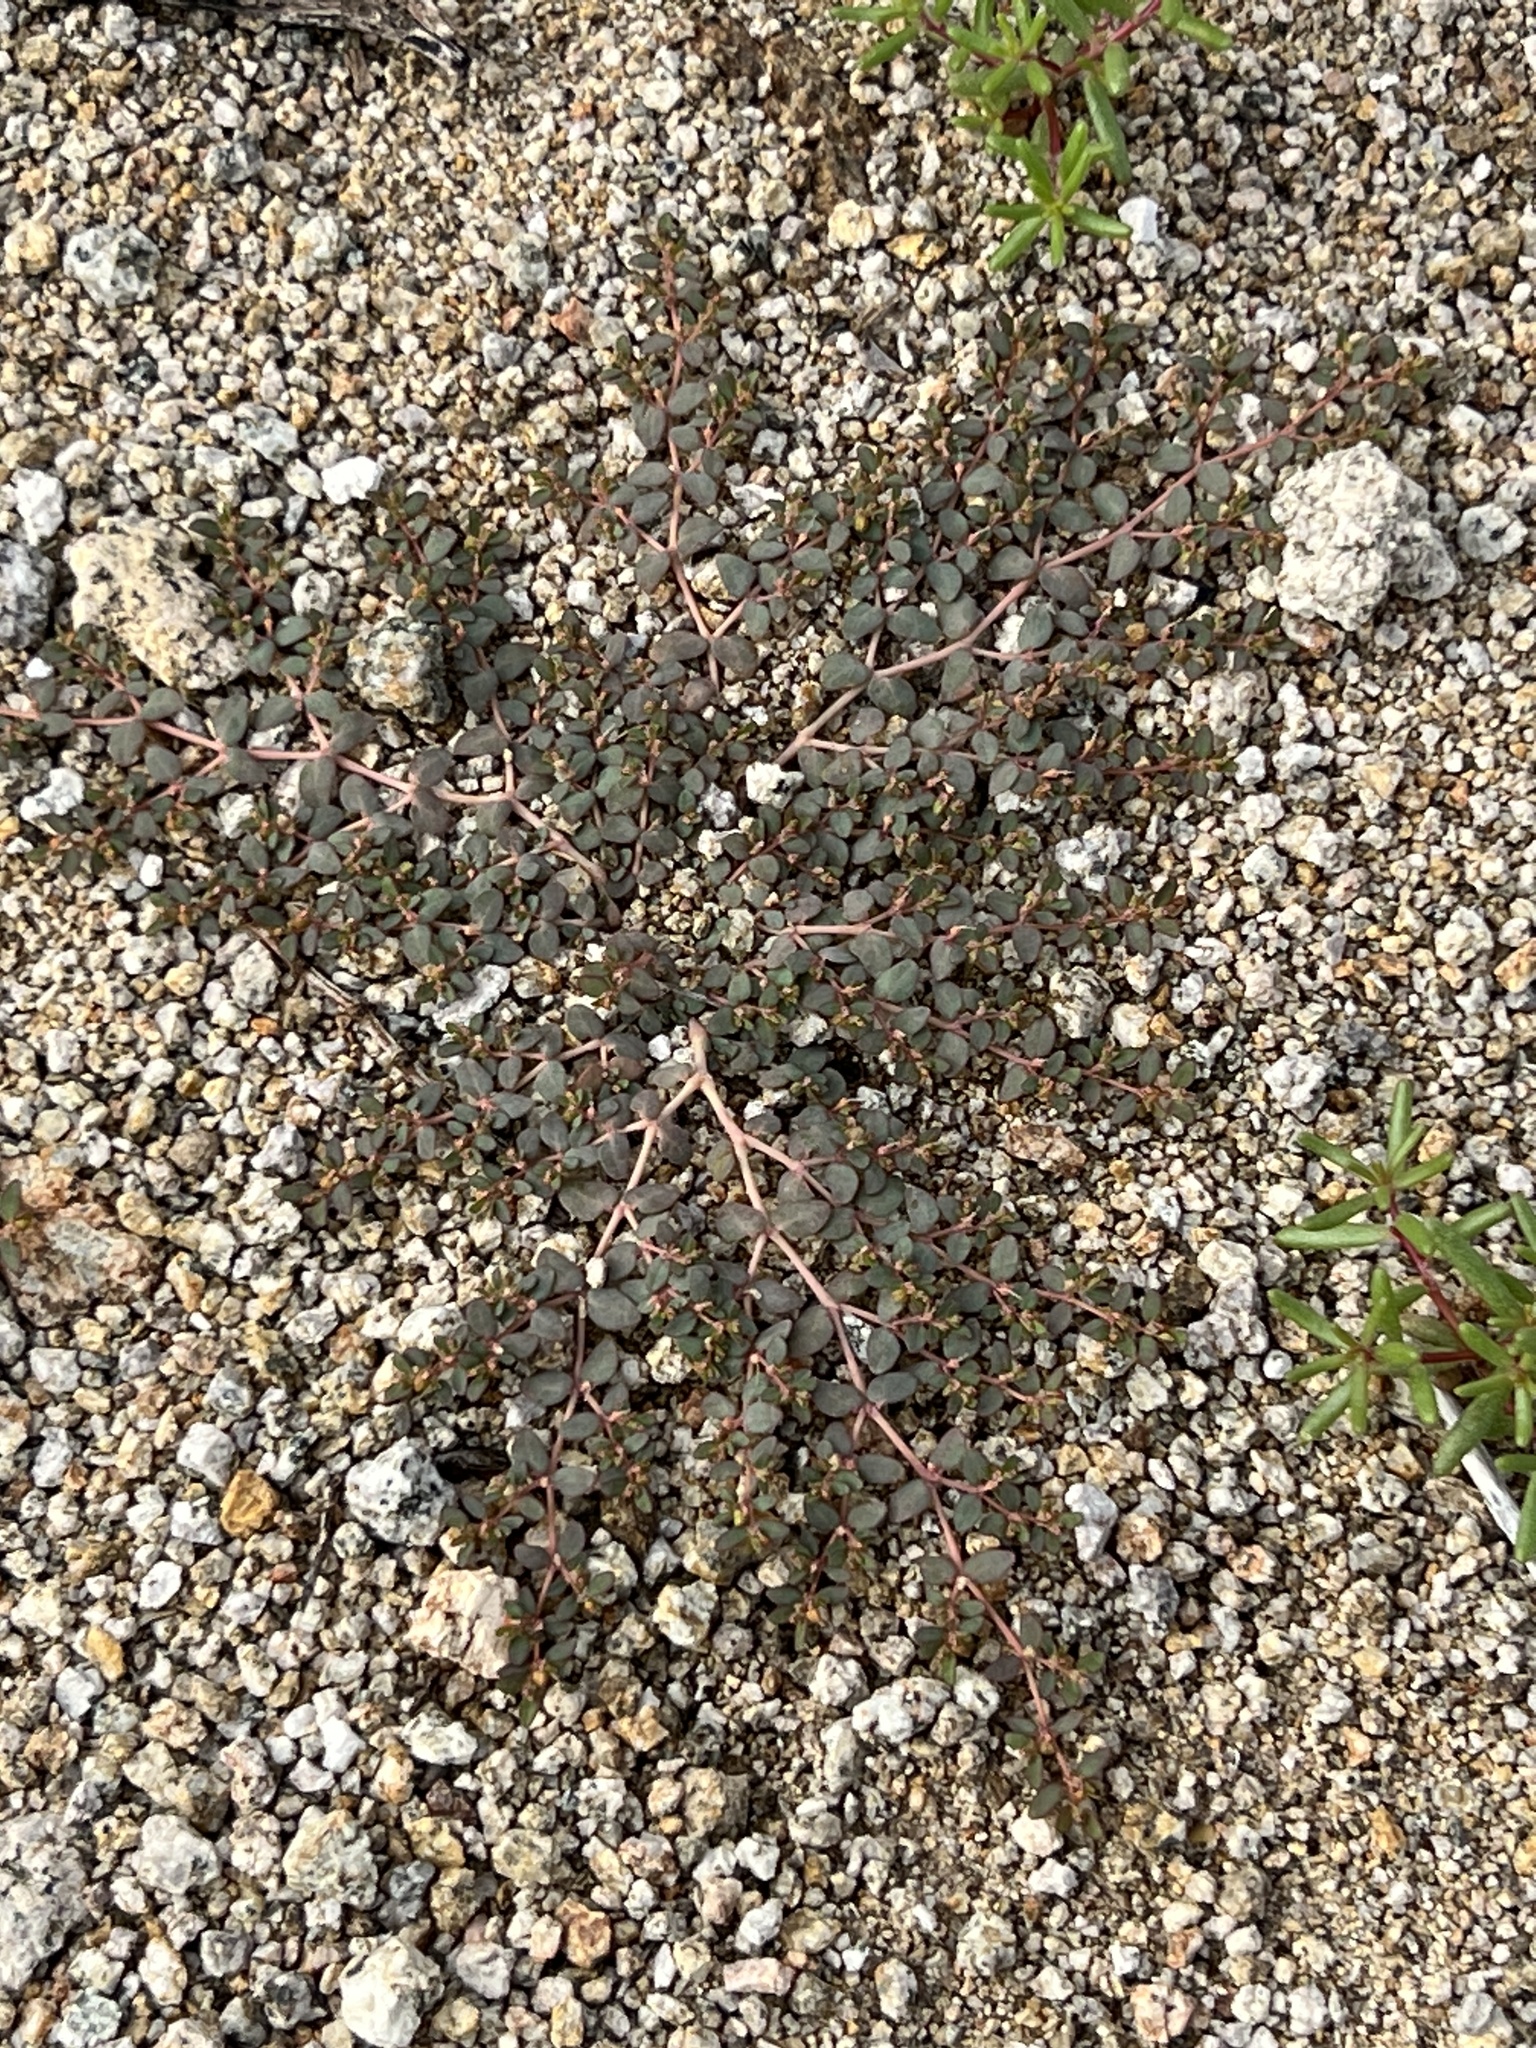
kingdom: Plantae
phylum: Tracheophyta
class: Magnoliopsida
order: Malpighiales
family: Euphorbiaceae
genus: Euphorbia
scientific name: Euphorbia micromera
